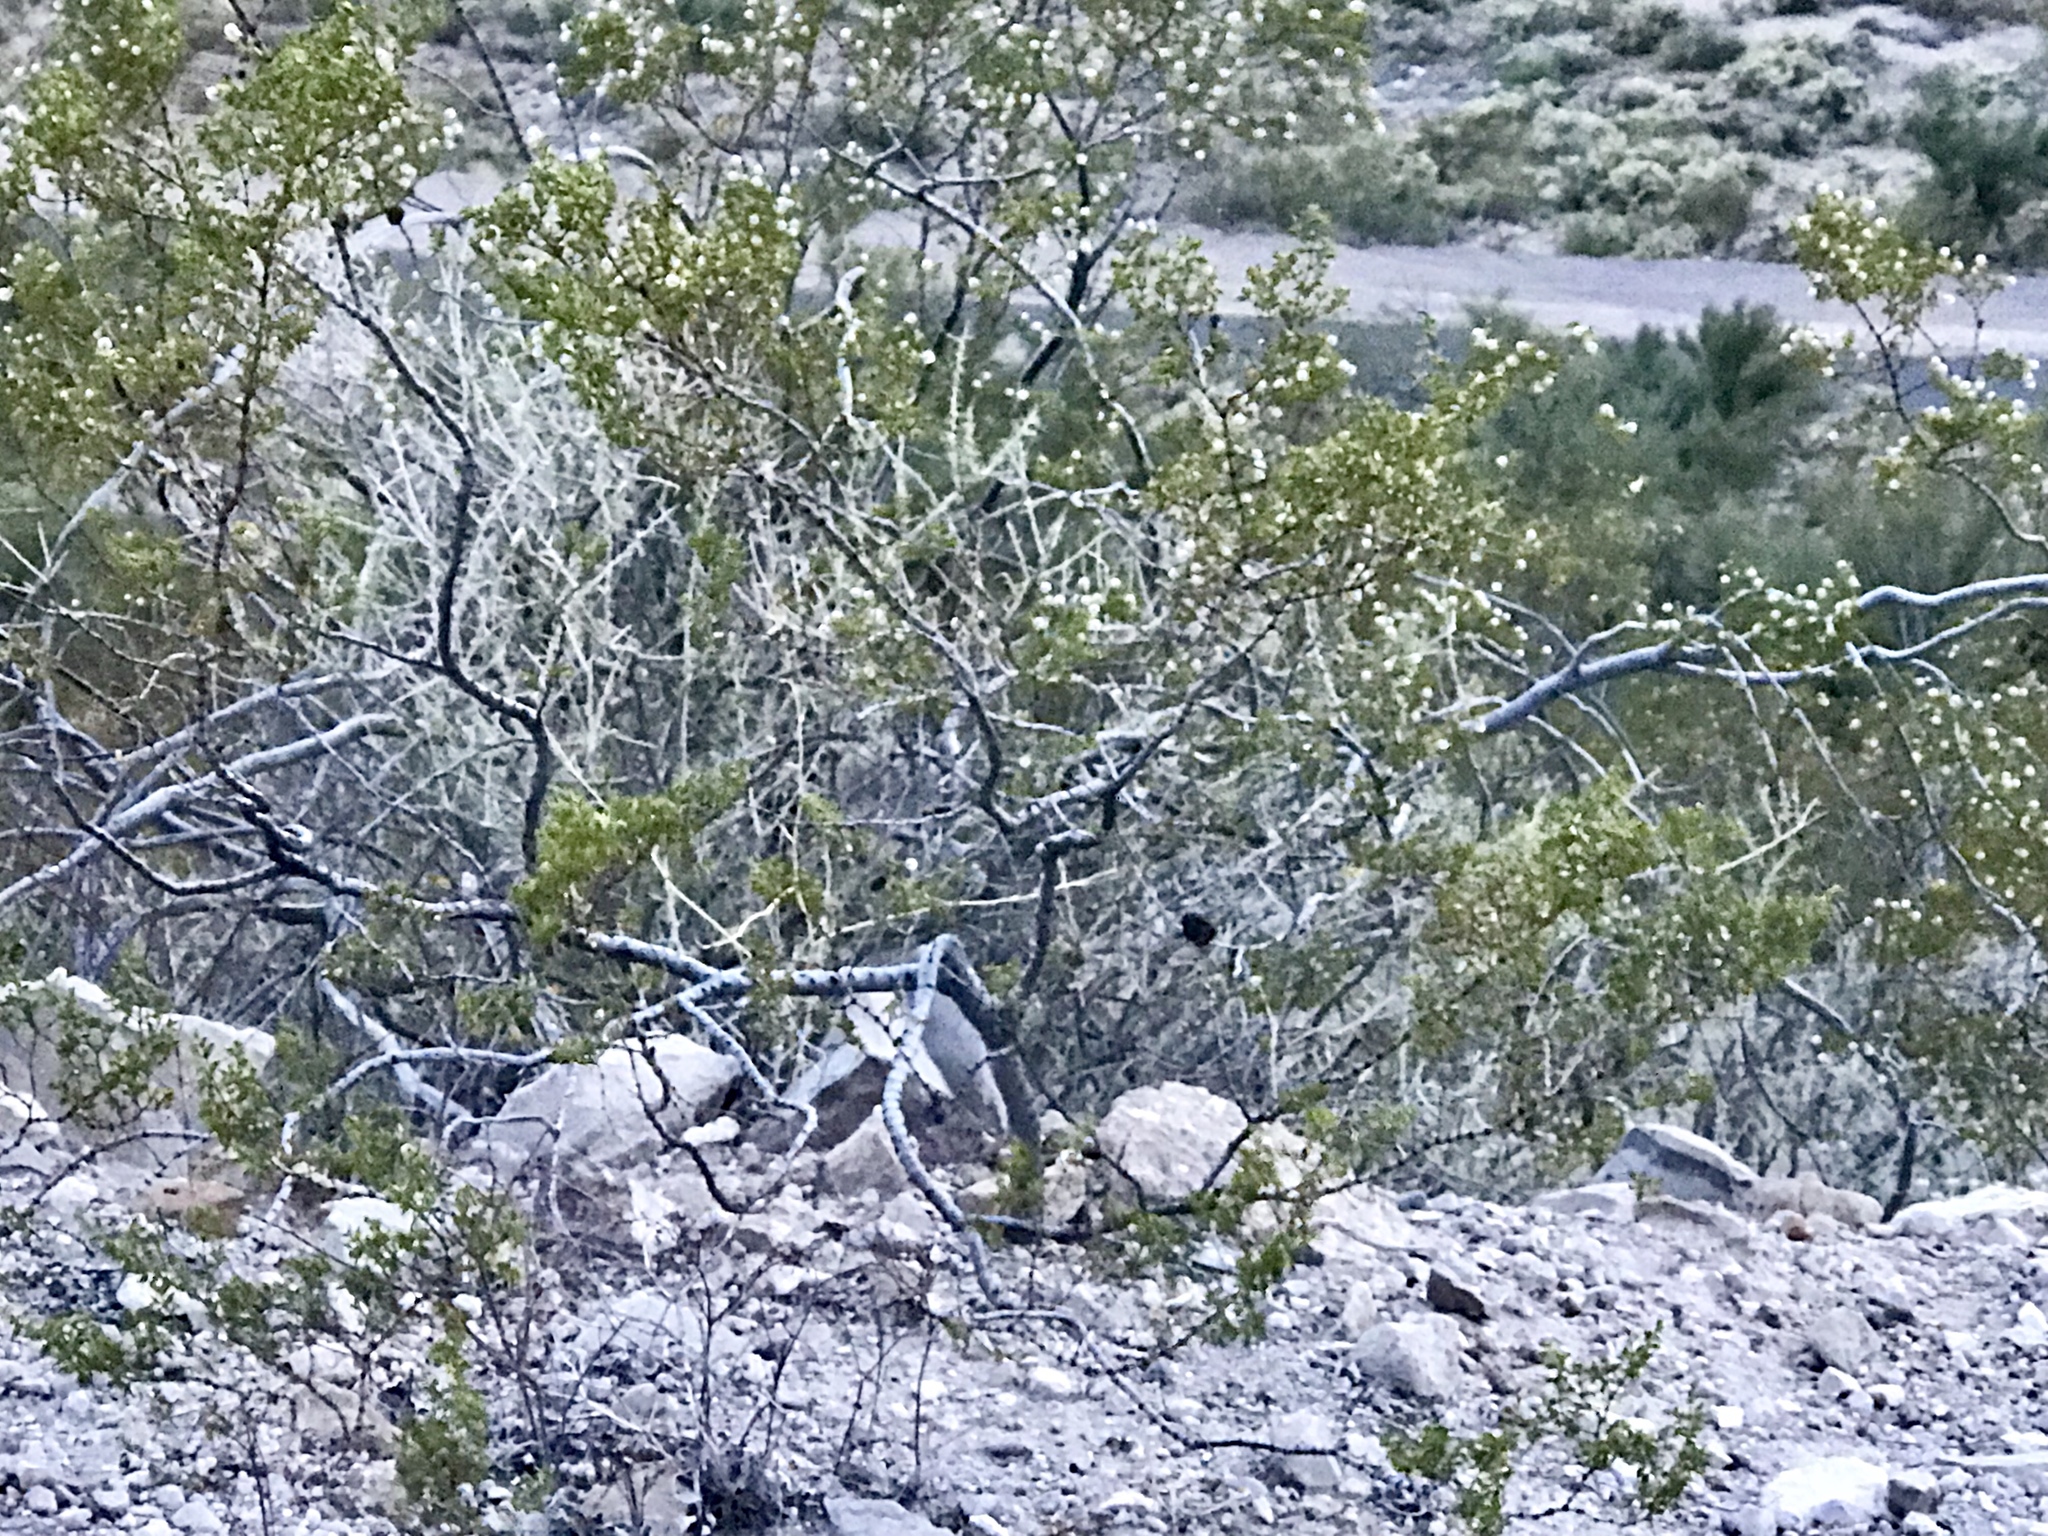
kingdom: Plantae
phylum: Tracheophyta
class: Magnoliopsida
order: Zygophyllales
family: Zygophyllaceae
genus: Larrea
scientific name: Larrea tridentata
